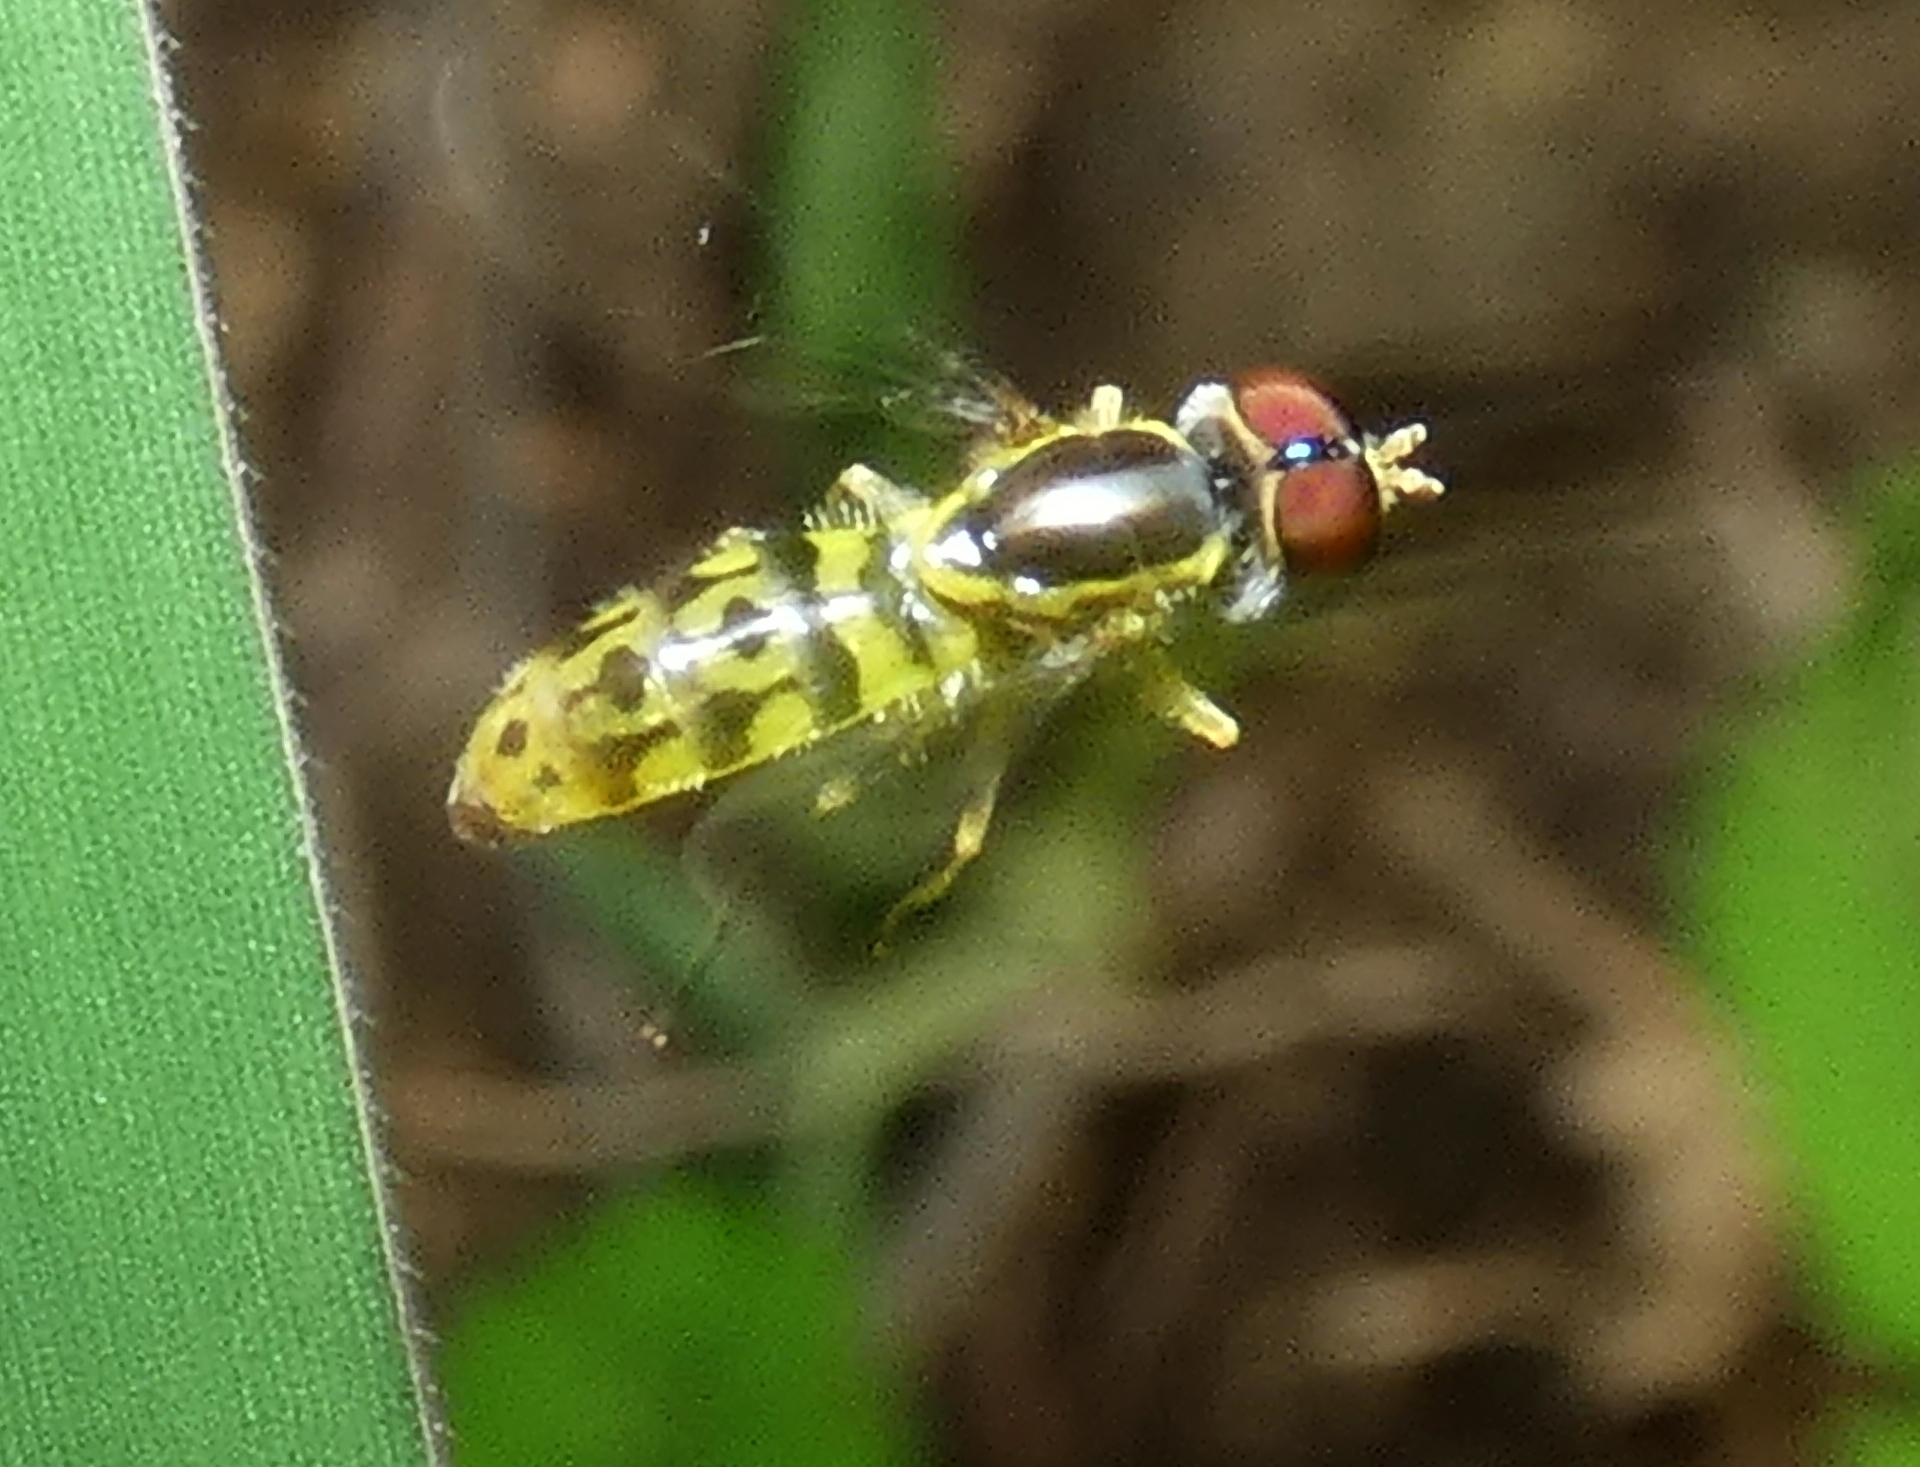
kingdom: Animalia
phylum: Arthropoda
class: Insecta
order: Diptera
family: Syrphidae
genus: Toxomerus
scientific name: Toxomerus virgulatus
